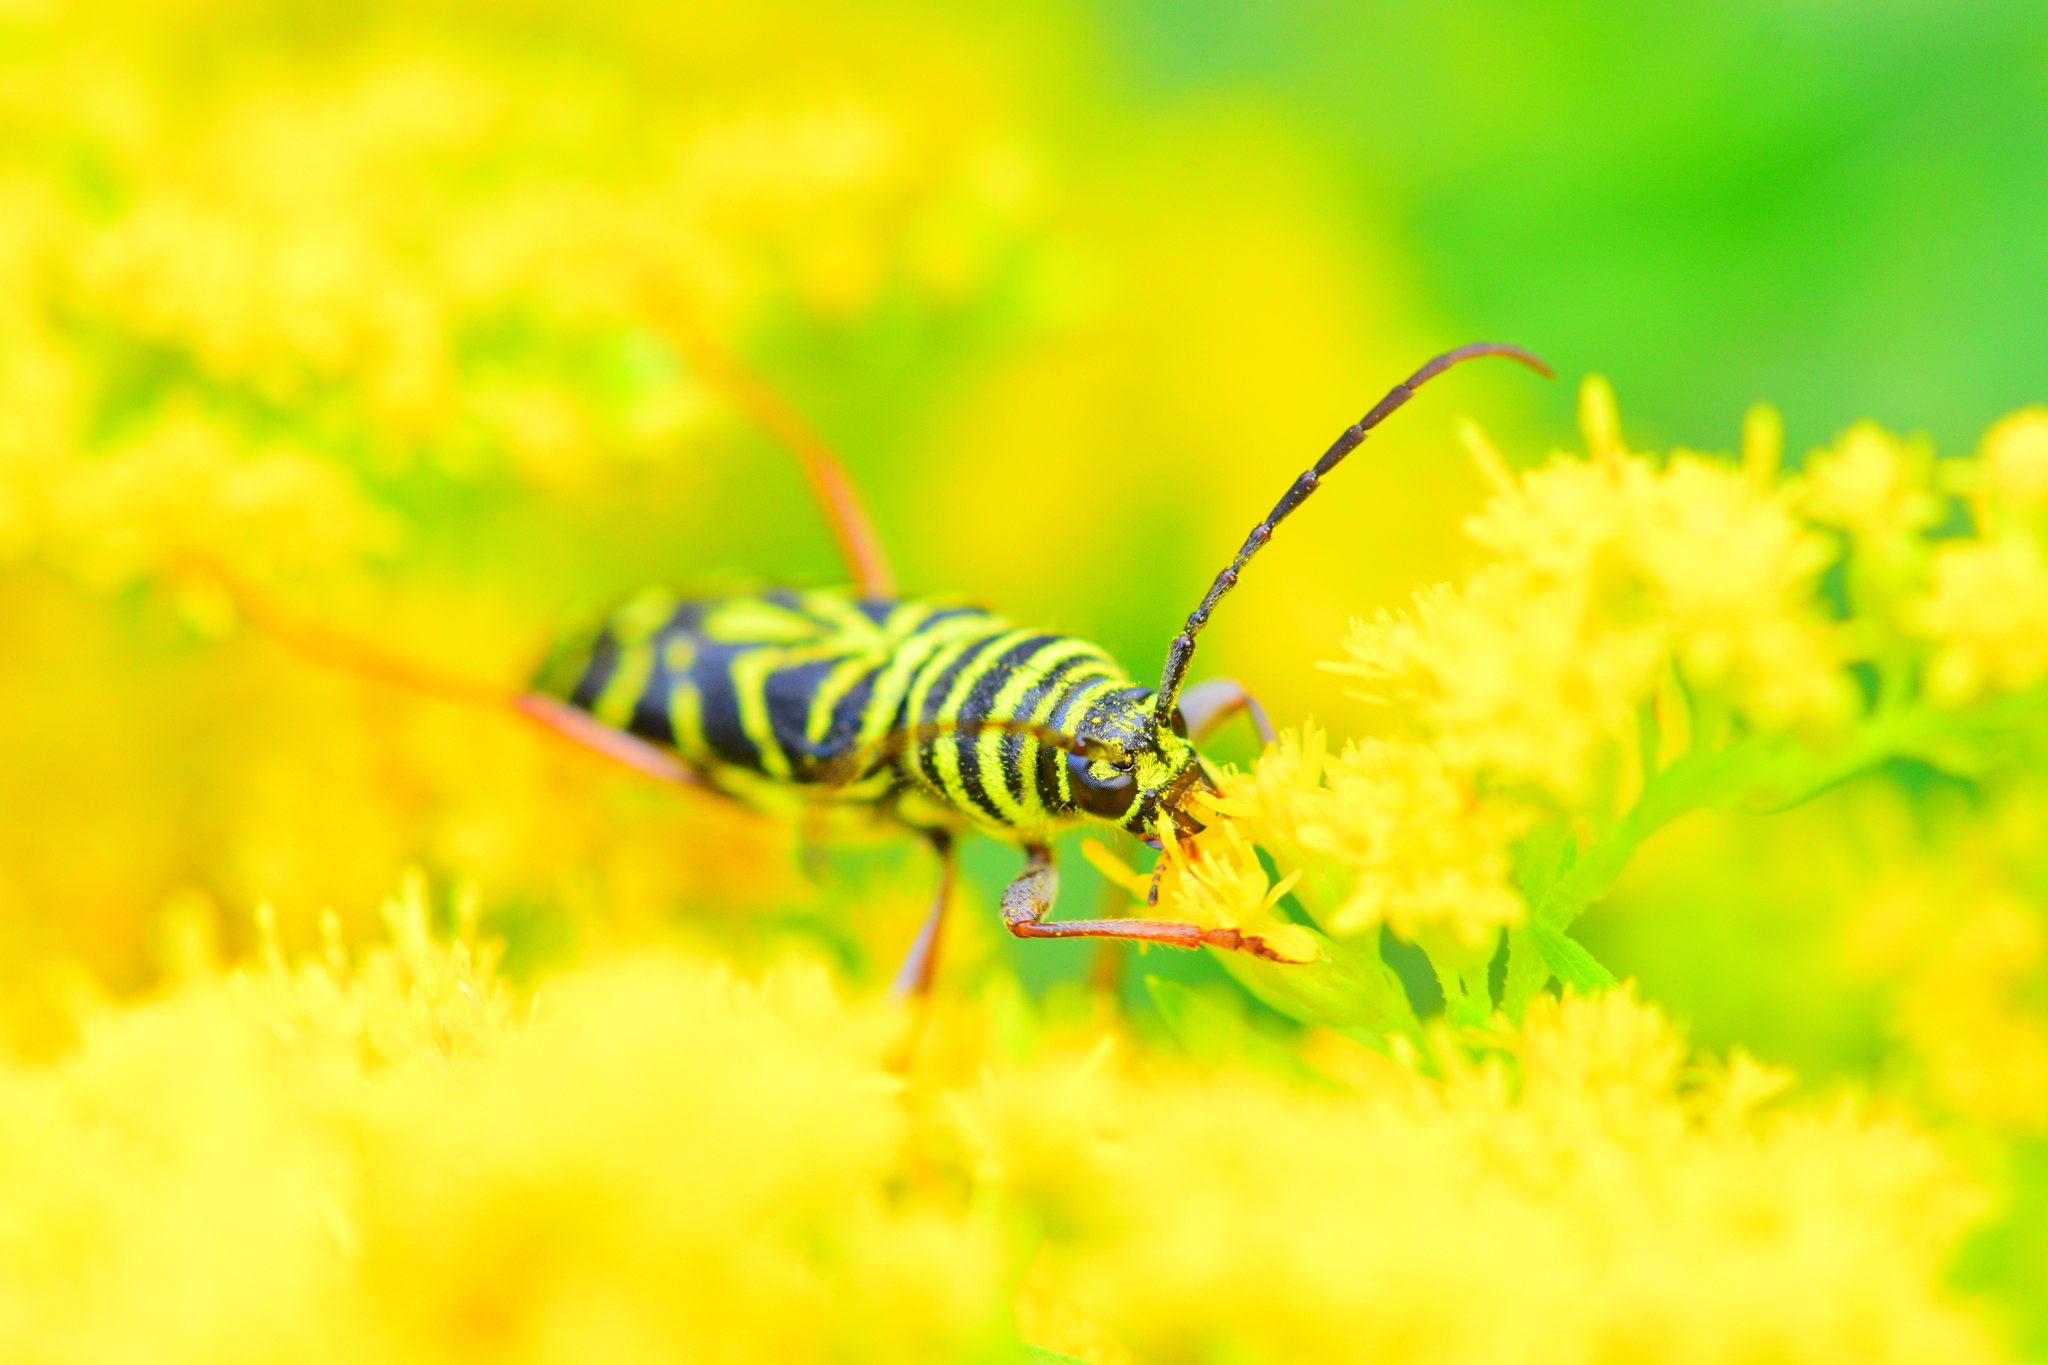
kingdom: Animalia
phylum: Arthropoda
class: Insecta
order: Coleoptera
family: Cerambycidae
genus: Megacyllene
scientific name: Megacyllene robiniae
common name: Locust borer
